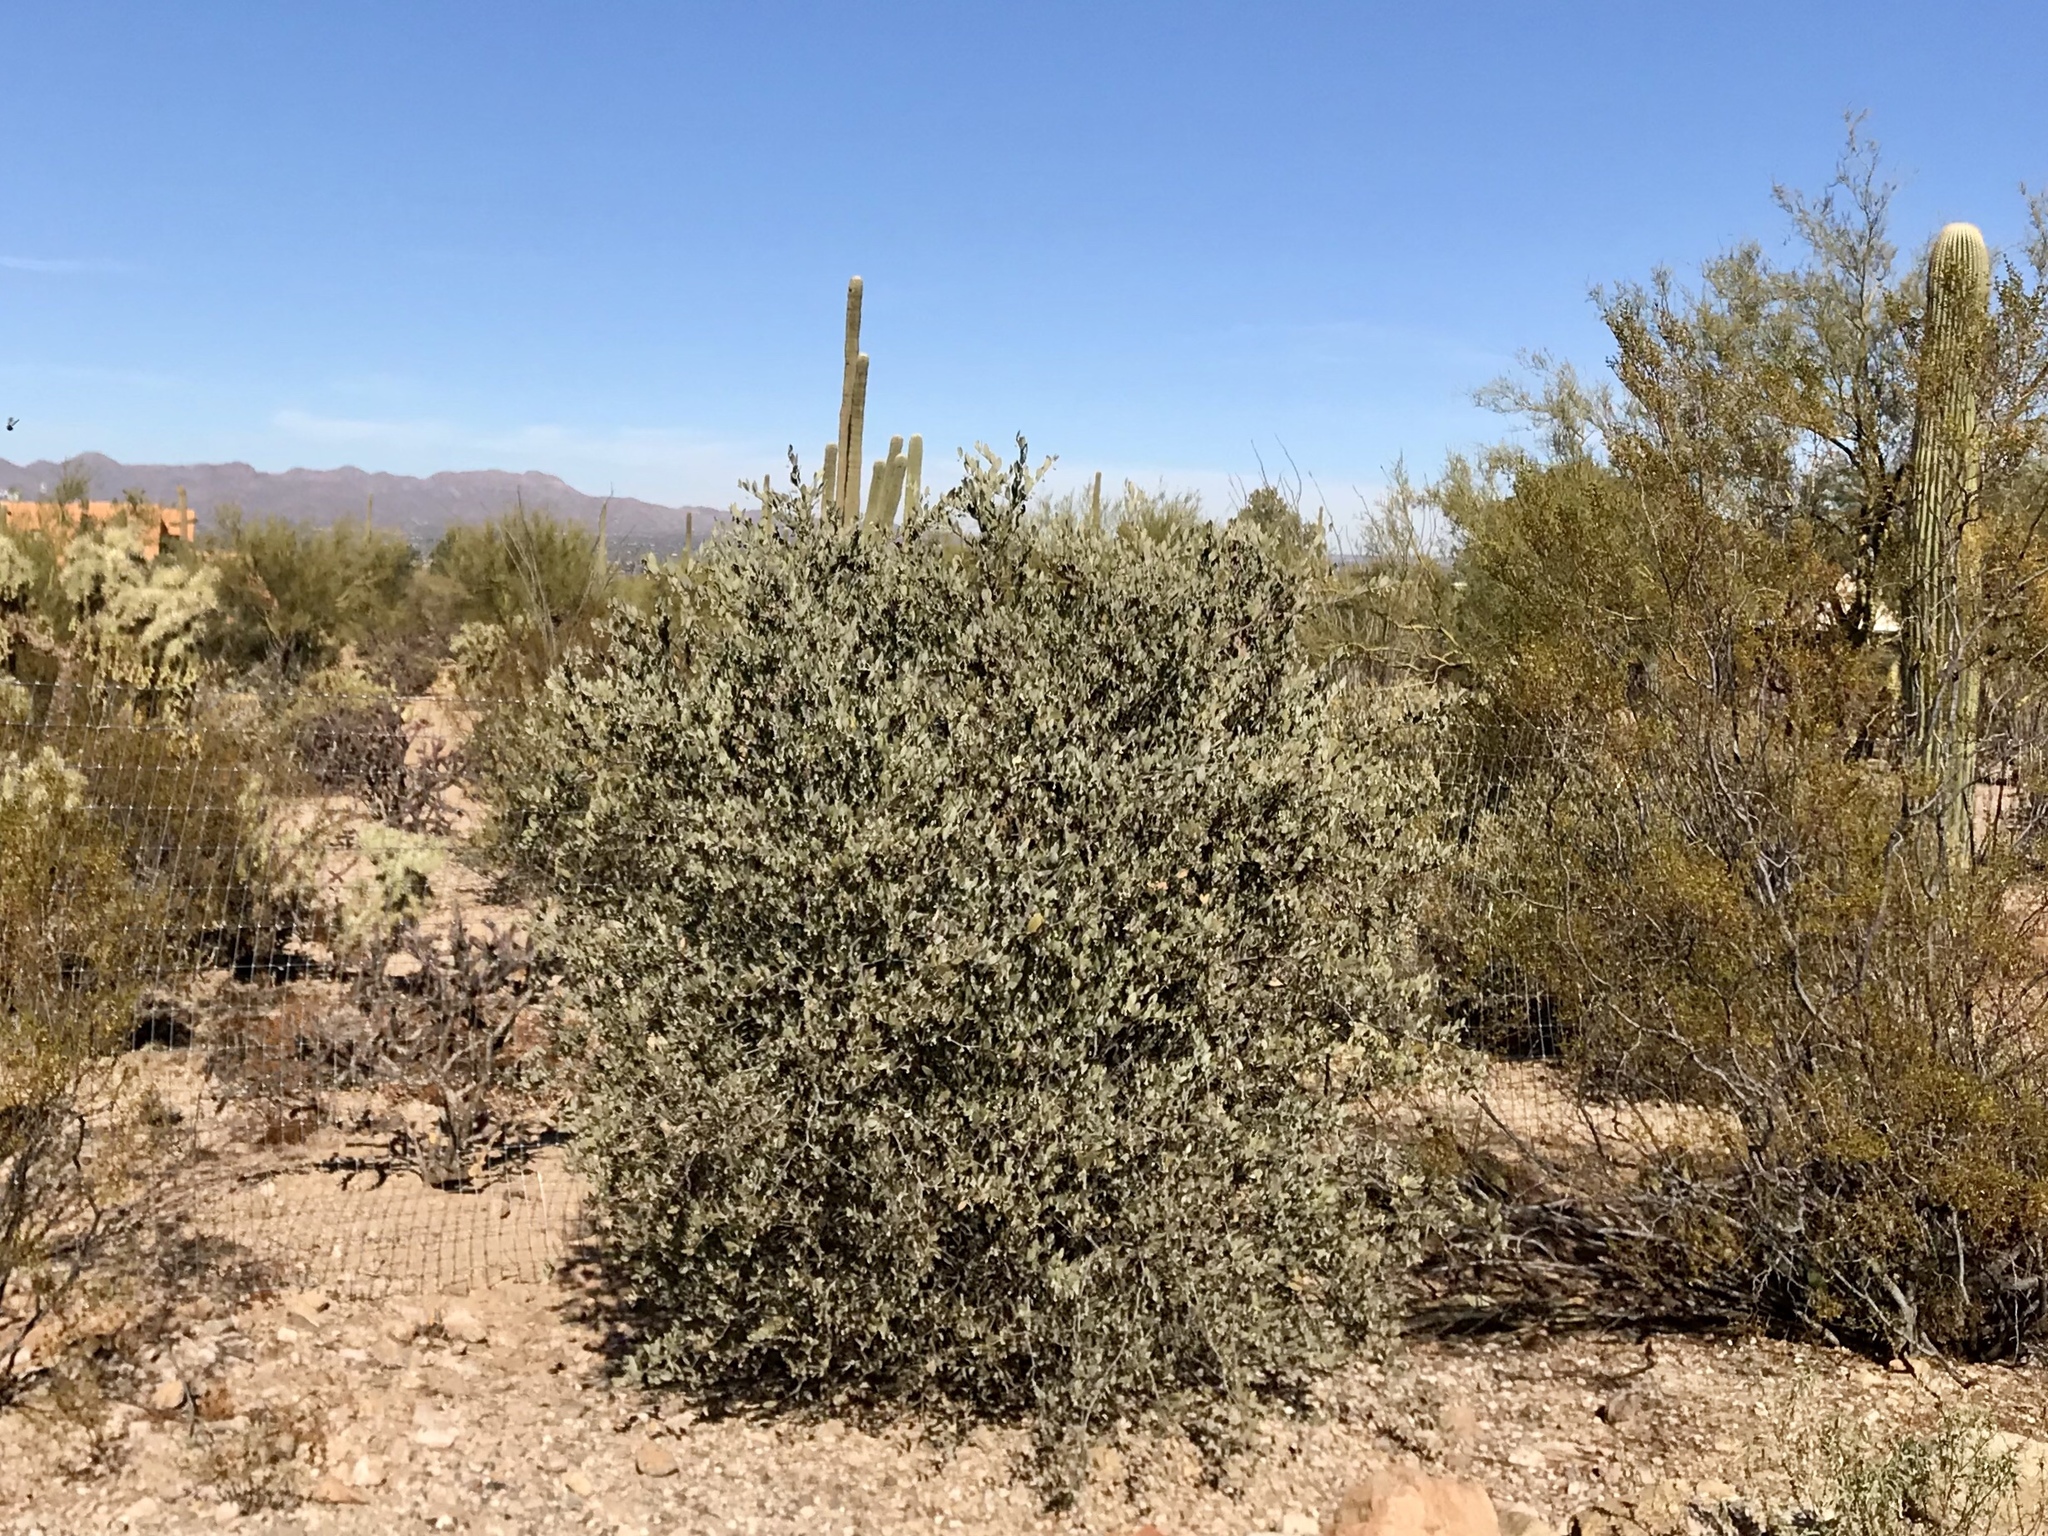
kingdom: Plantae
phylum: Tracheophyta
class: Magnoliopsida
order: Caryophyllales
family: Simmondsiaceae
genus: Simmondsia
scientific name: Simmondsia chinensis
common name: Jojoba
